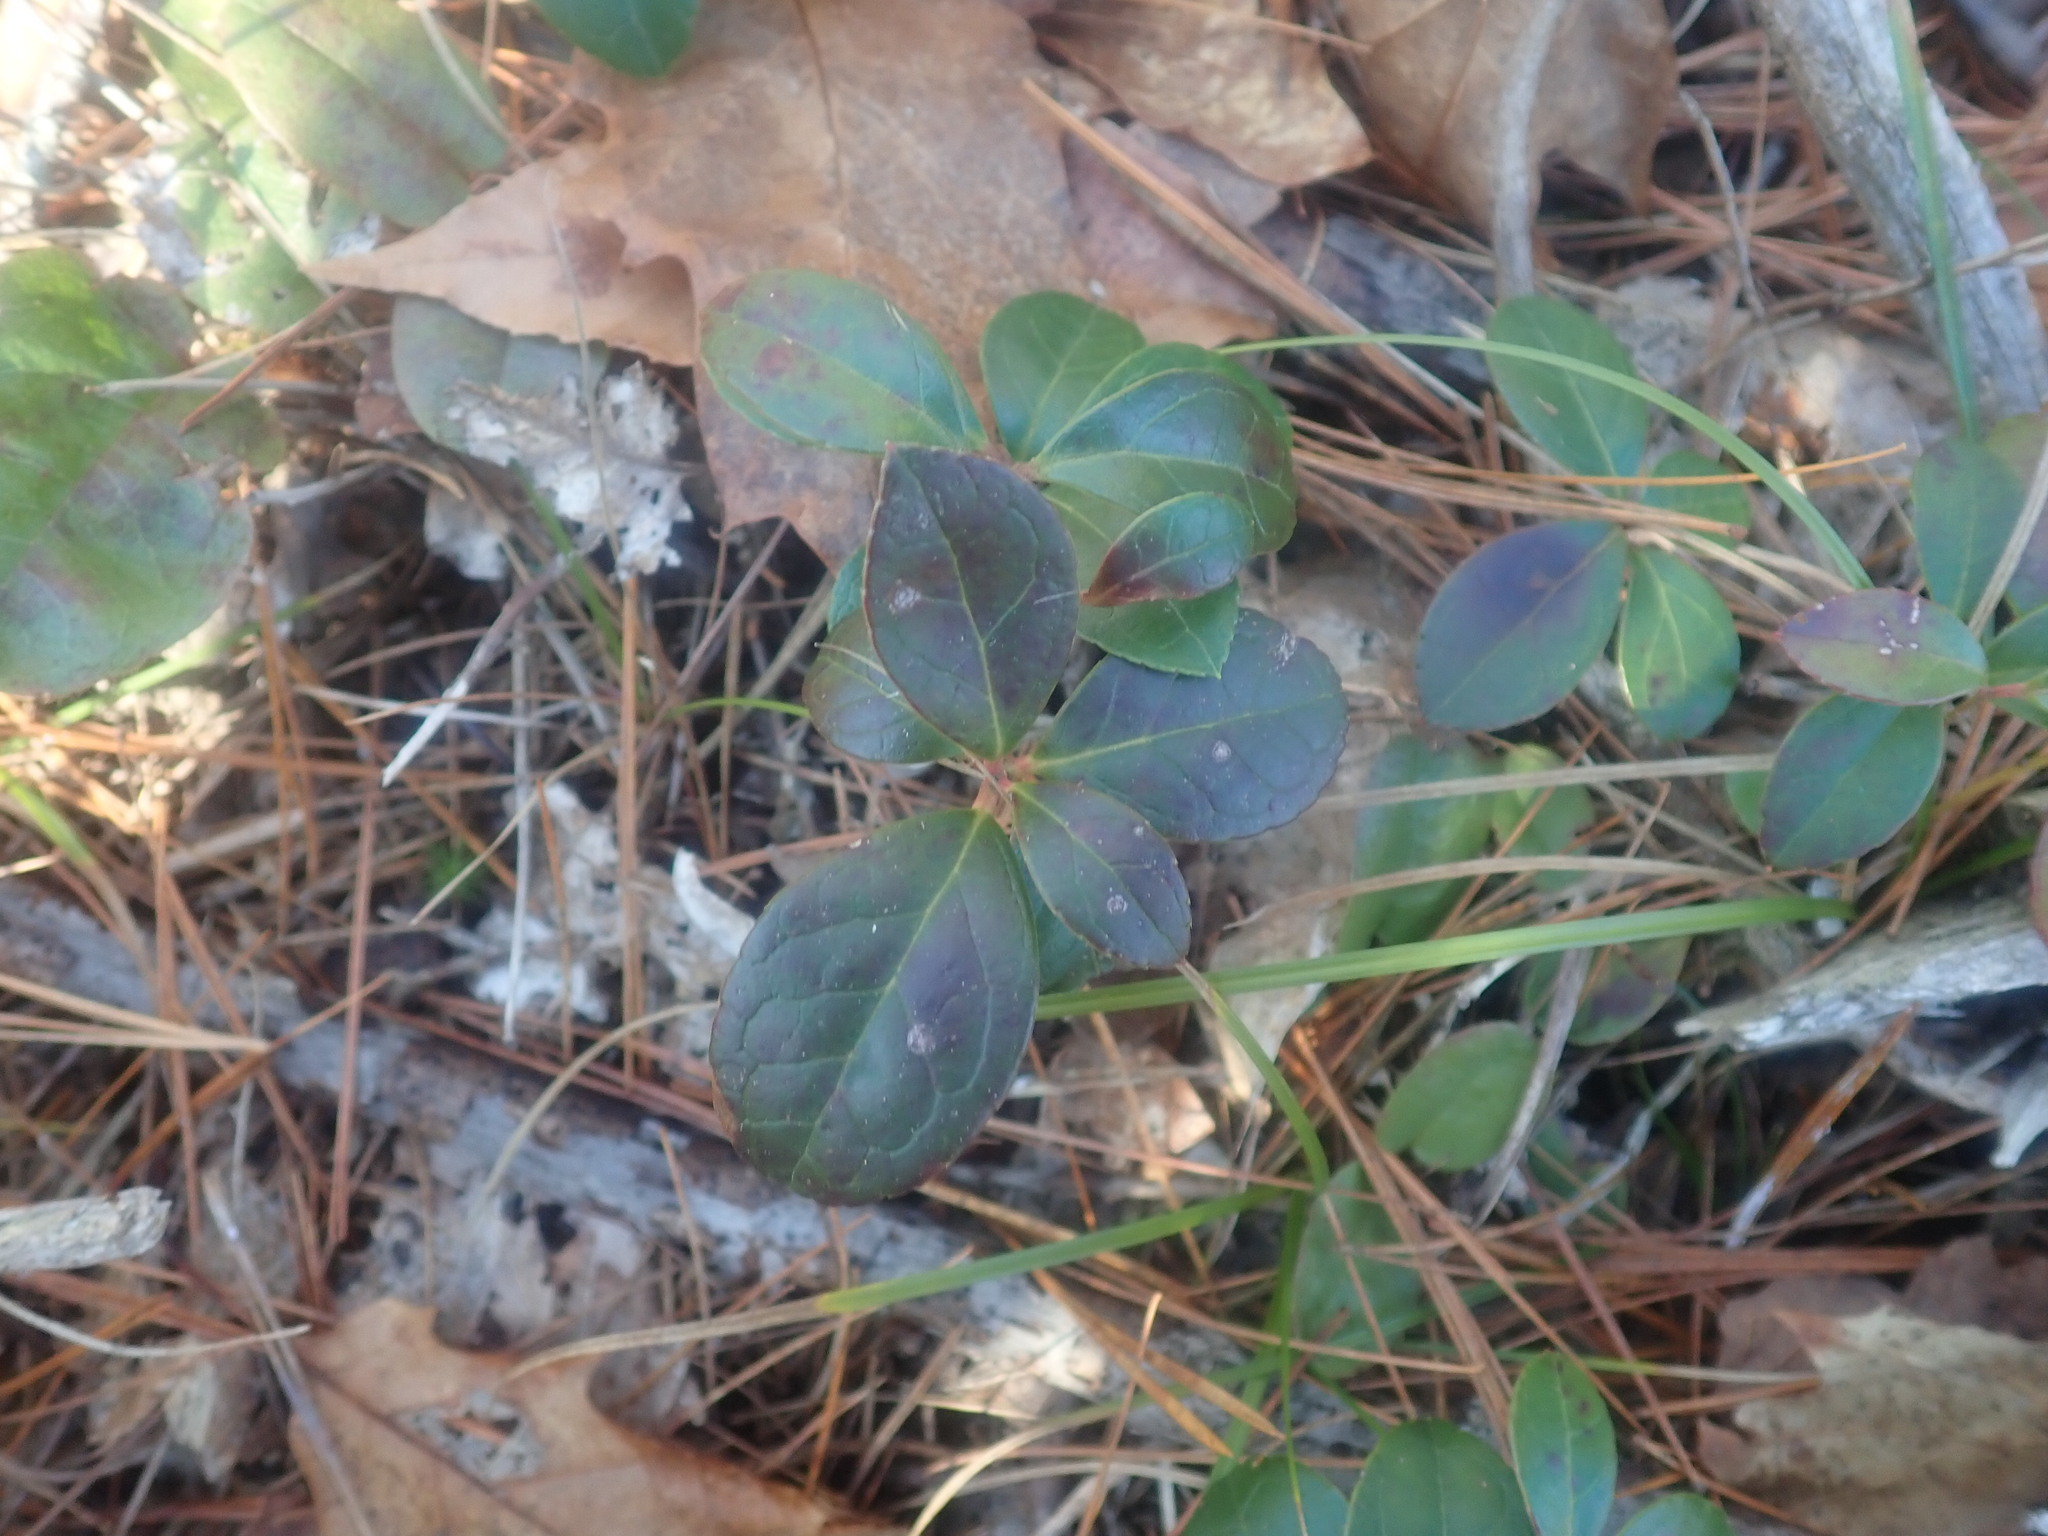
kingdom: Plantae
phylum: Tracheophyta
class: Magnoliopsida
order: Ericales
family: Ericaceae
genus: Gaultheria
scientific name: Gaultheria procumbens
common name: Checkerberry
